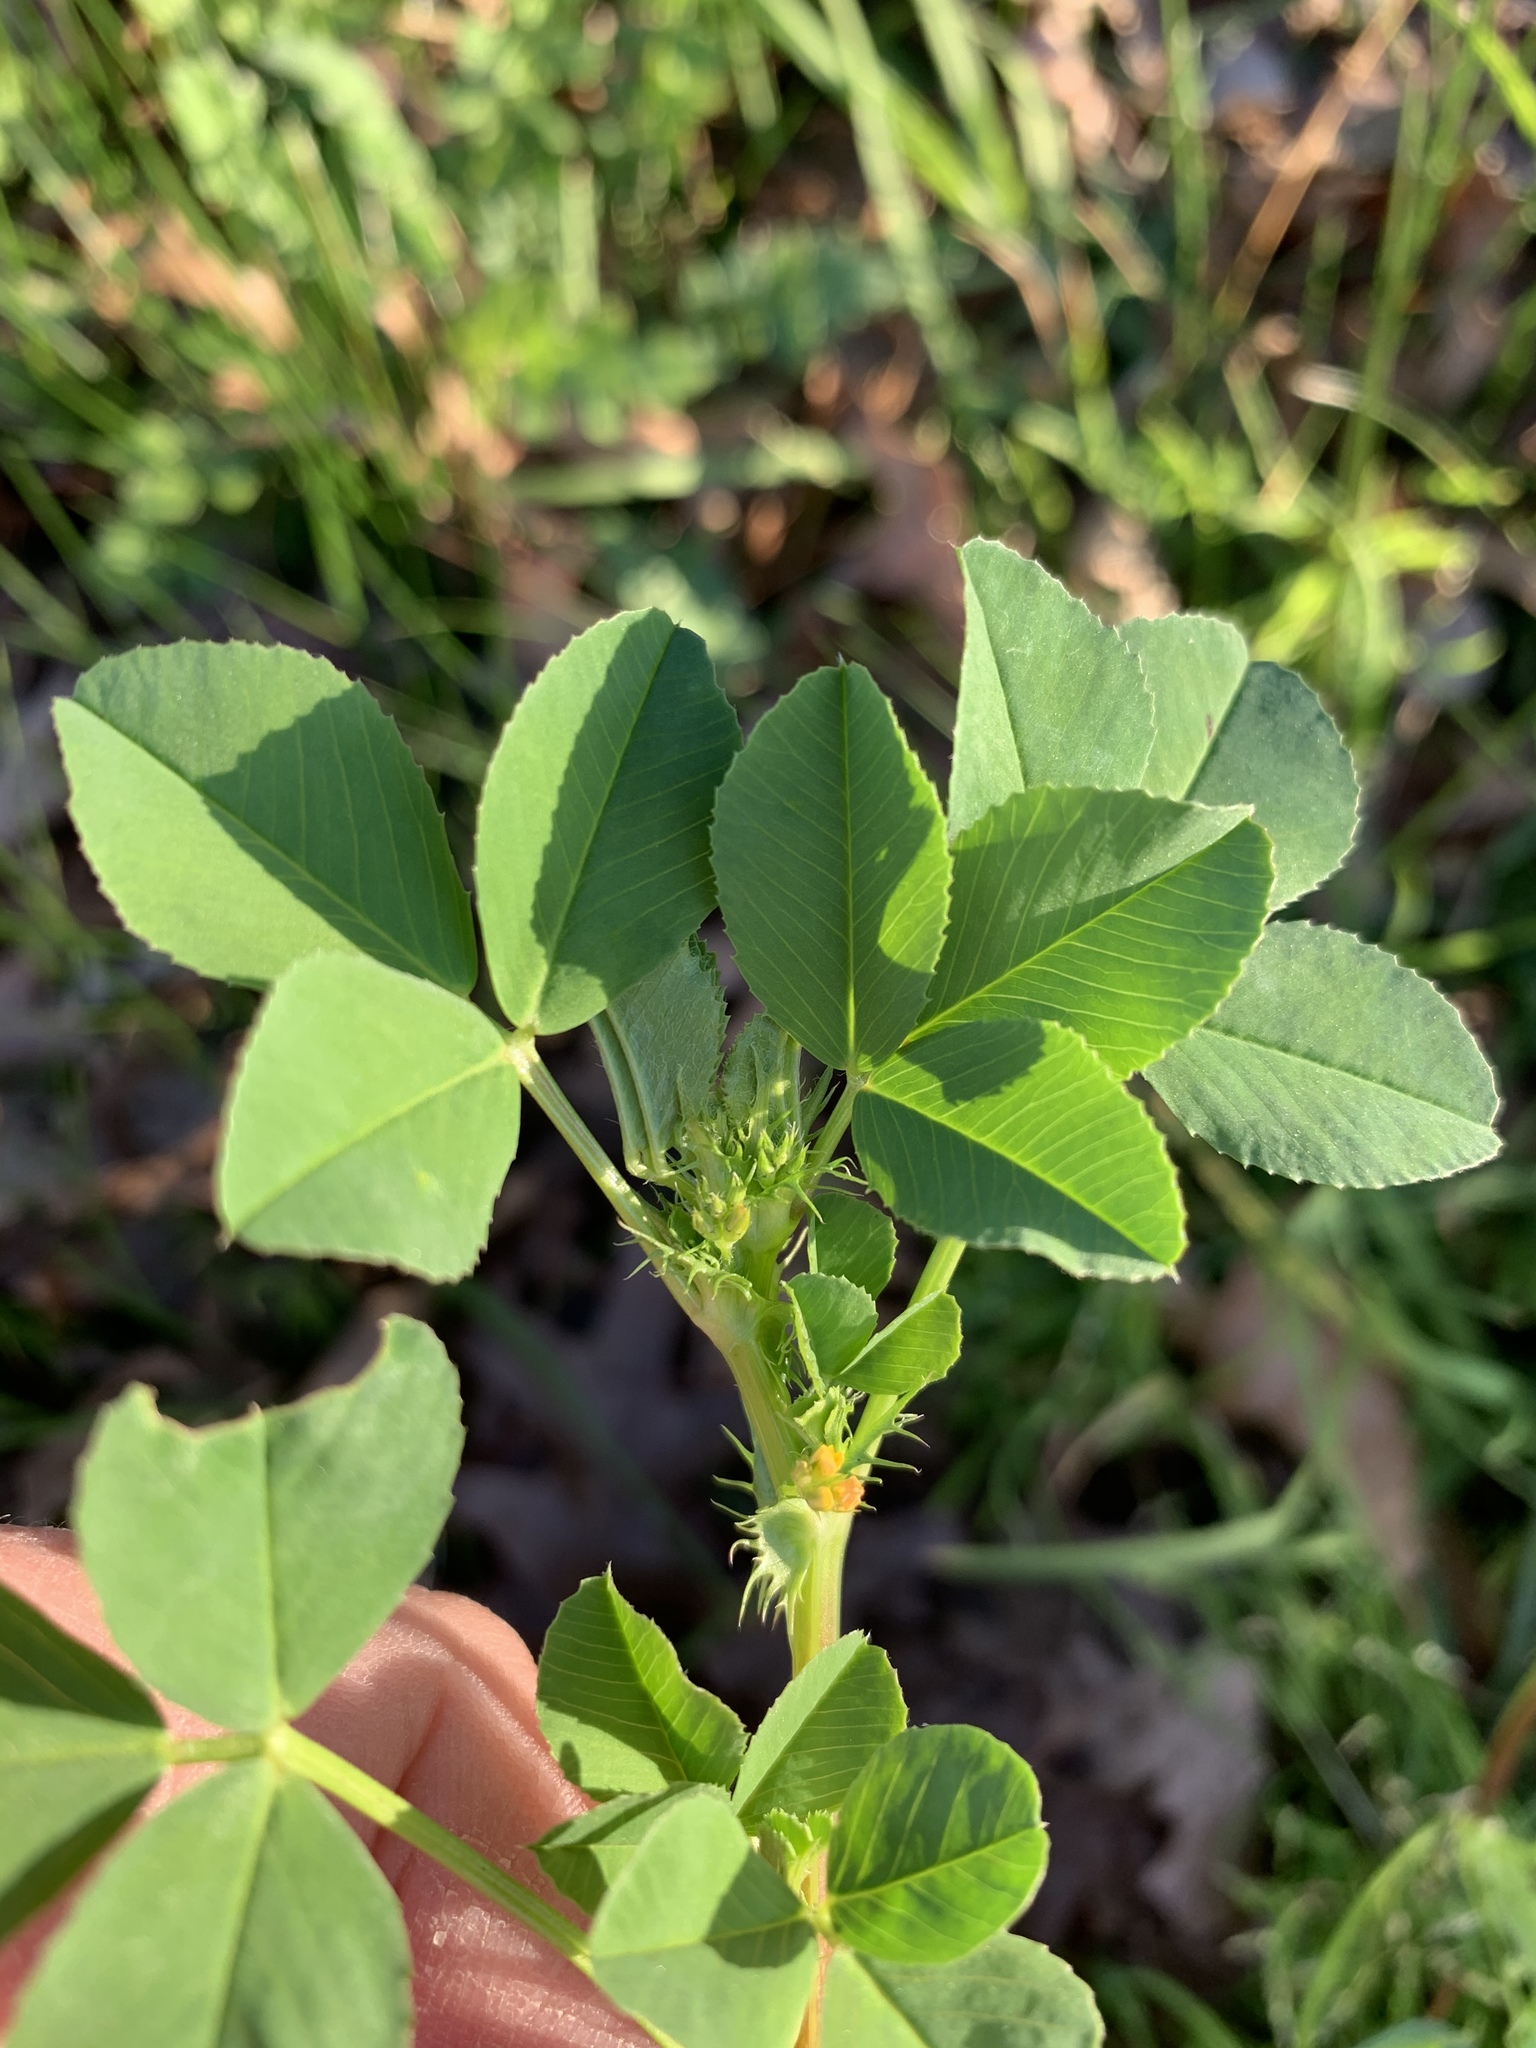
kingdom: Plantae
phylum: Tracheophyta
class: Magnoliopsida
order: Fabales
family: Fabaceae
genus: Medicago
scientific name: Medicago polymorpha
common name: Burclover
